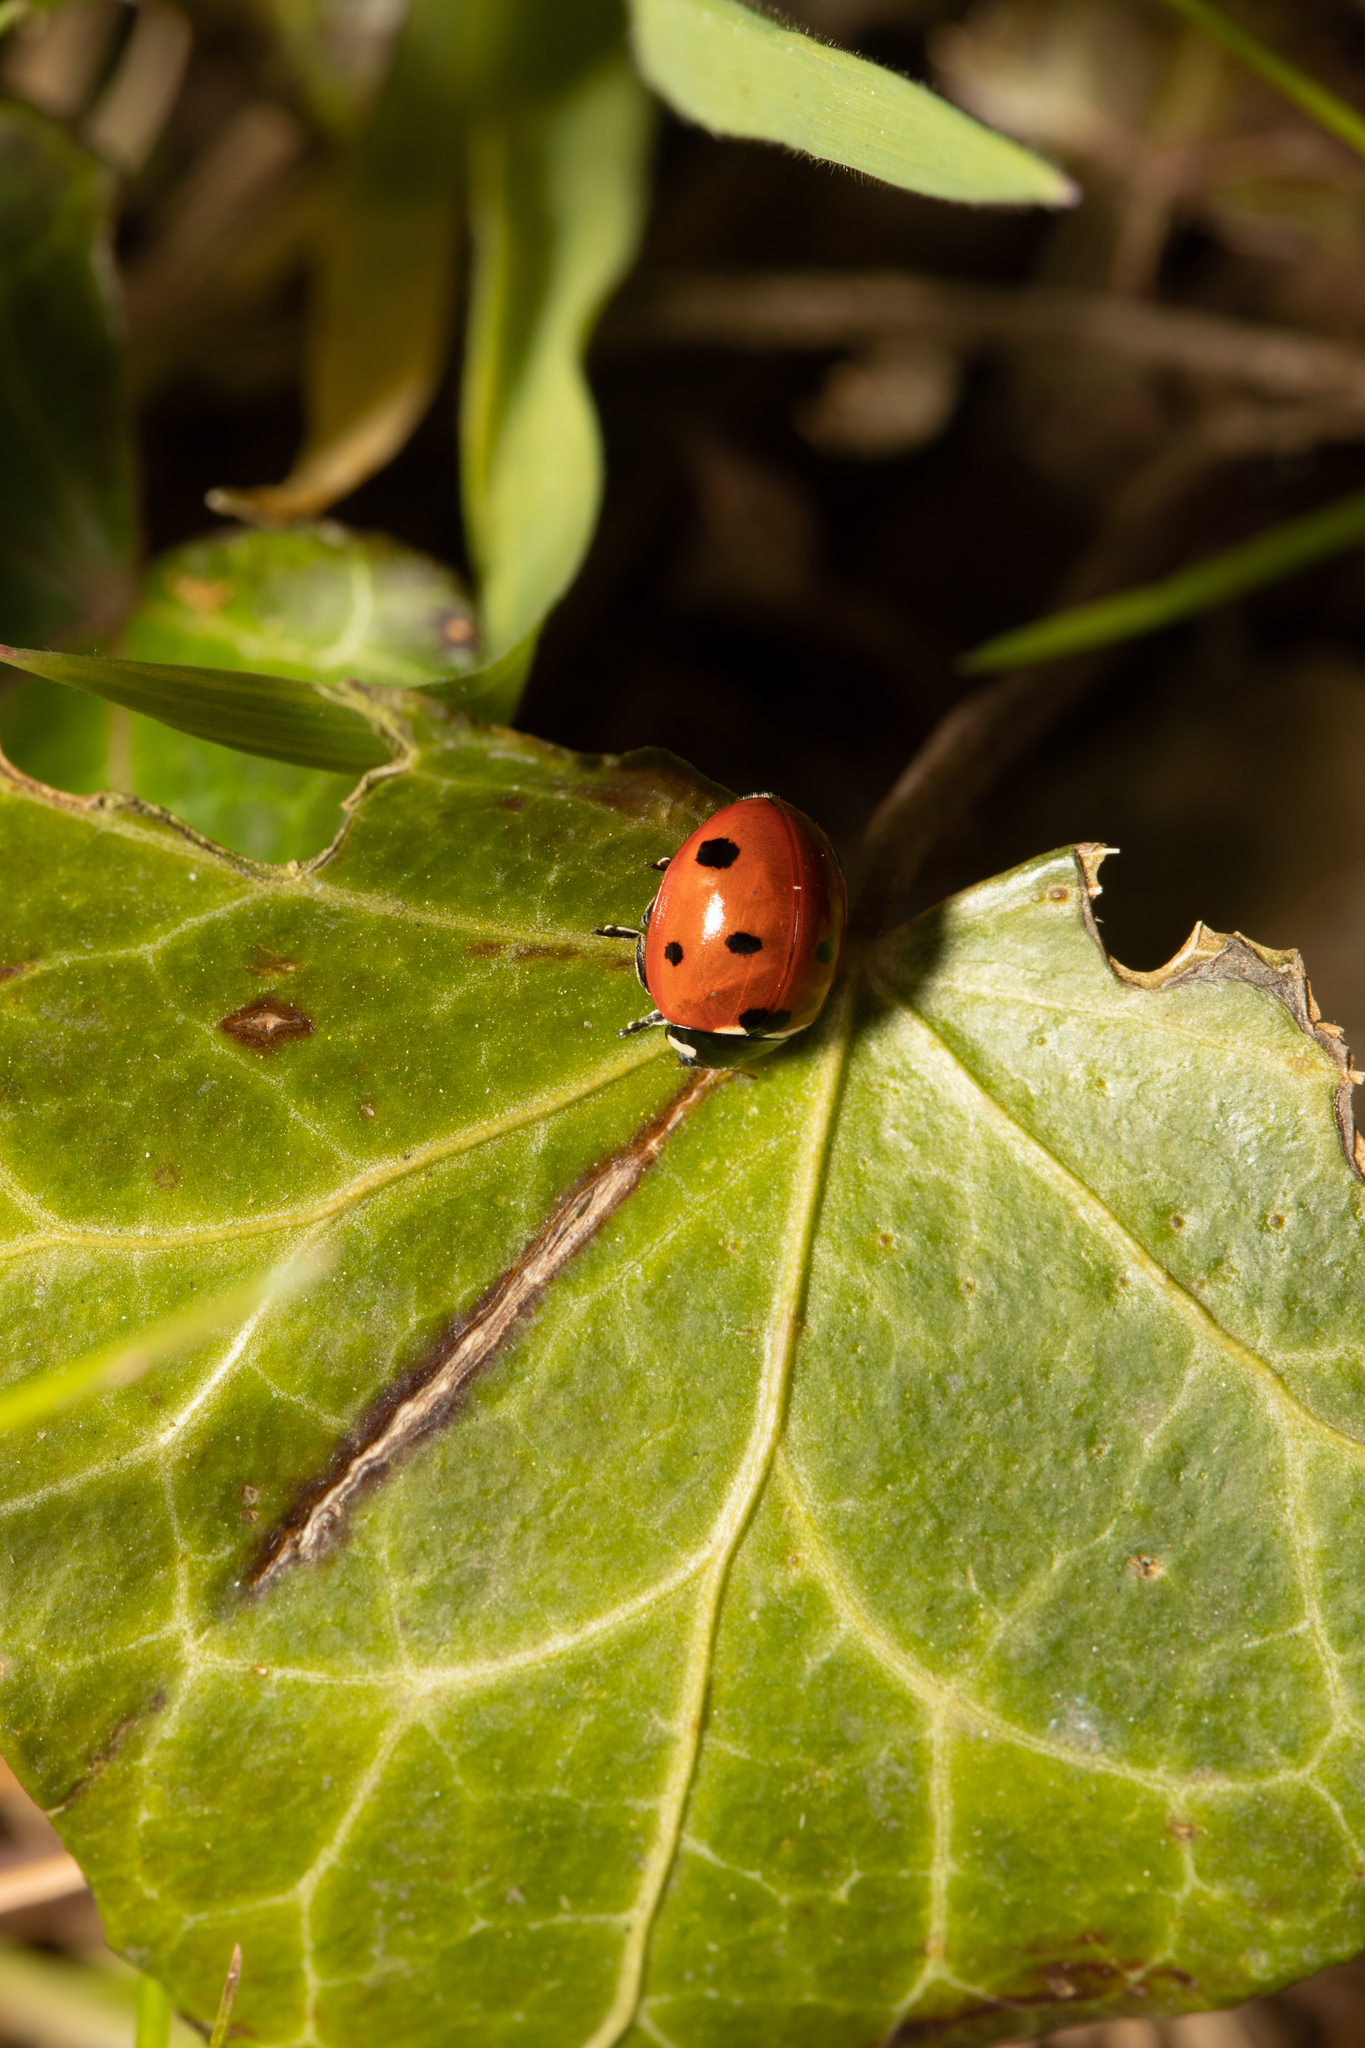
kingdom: Animalia
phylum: Arthropoda
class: Insecta
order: Coleoptera
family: Coccinellidae
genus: Coccinella
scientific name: Coccinella septempunctata
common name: Sevenspotted lady beetle
